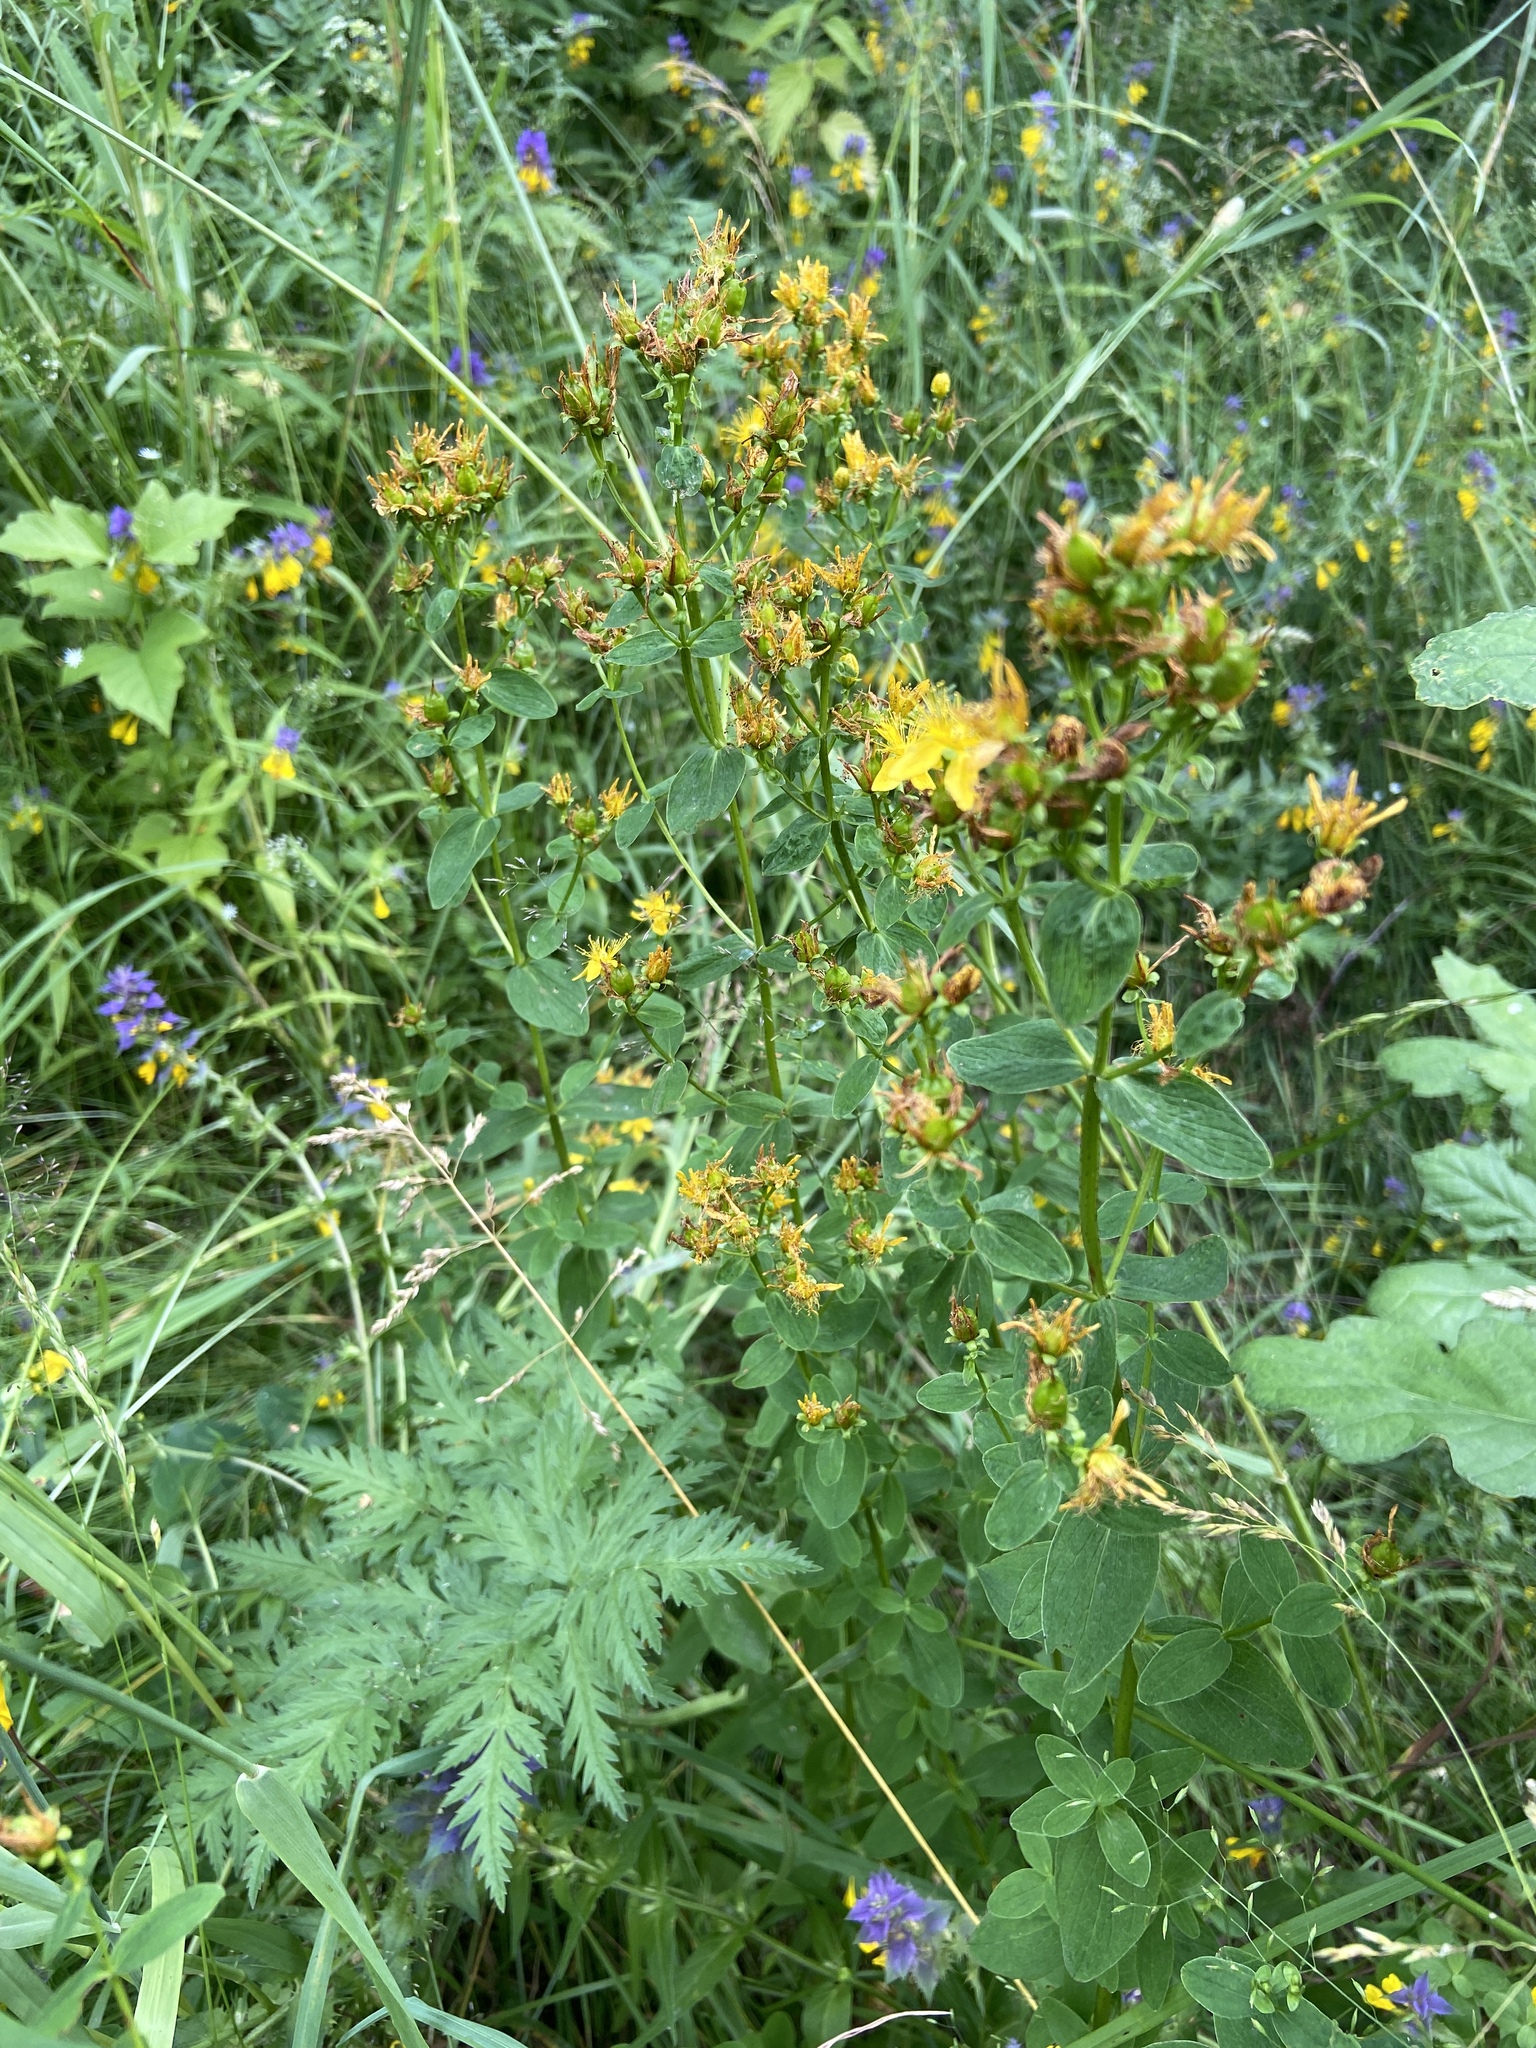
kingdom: Plantae
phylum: Tracheophyta
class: Magnoliopsida
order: Malpighiales
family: Hypericaceae
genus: Hypericum
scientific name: Hypericum maculatum
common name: Imperforate st. john's-wort
